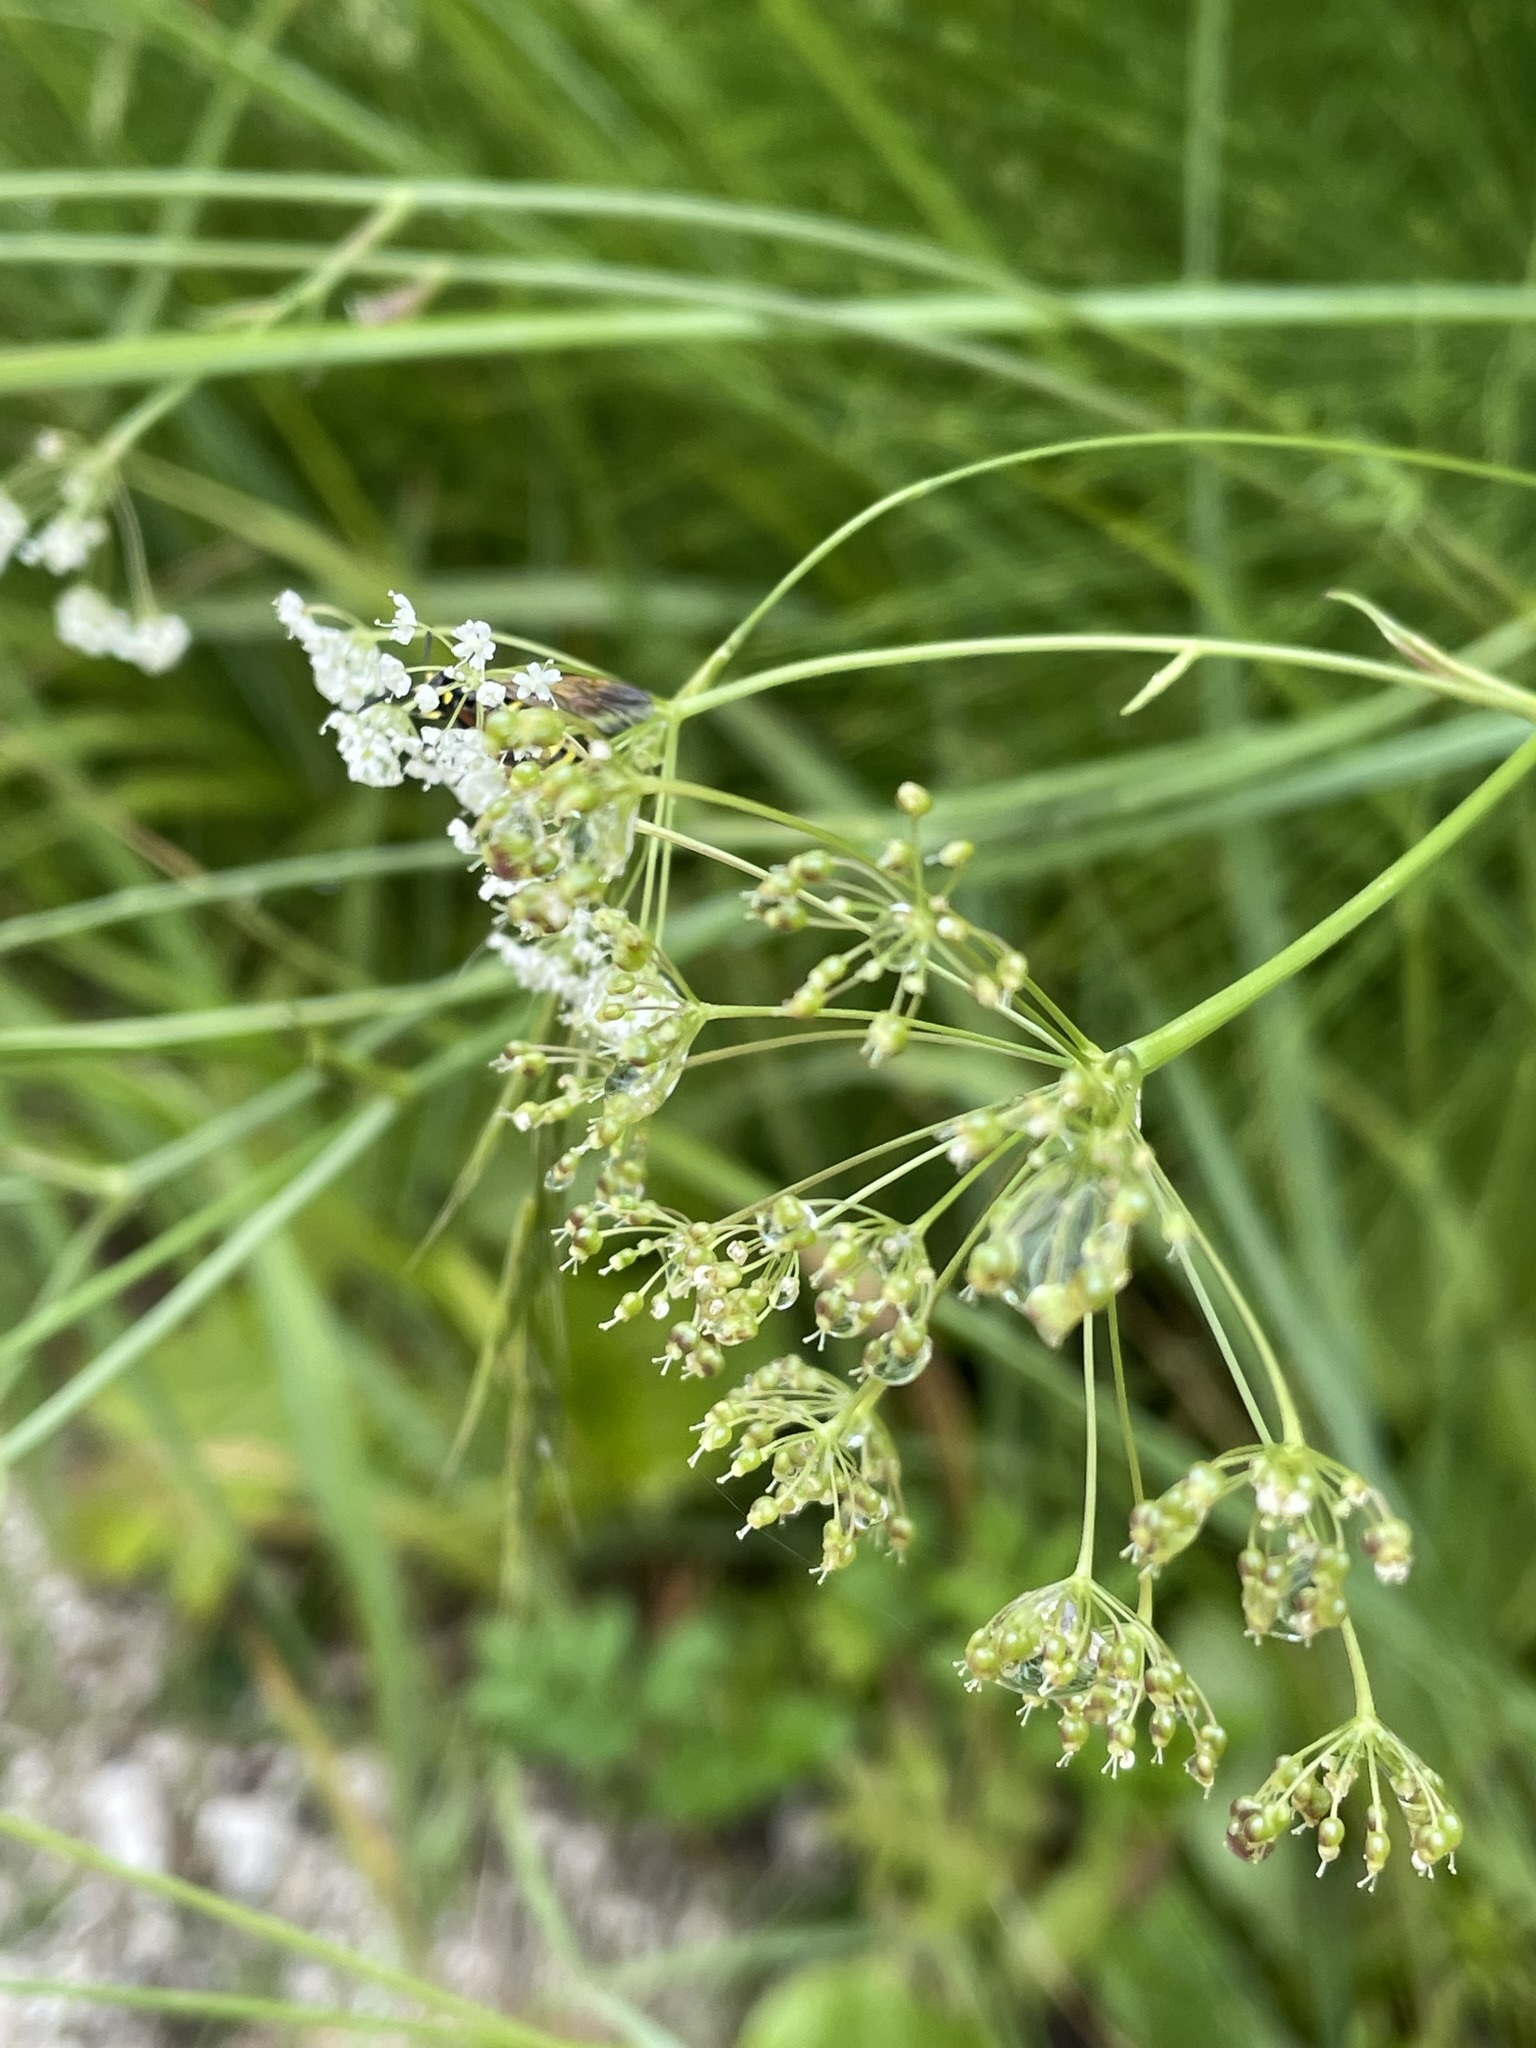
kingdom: Plantae
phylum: Tracheophyta
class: Magnoliopsida
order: Apiales
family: Apiaceae
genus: Pimpinella
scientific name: Pimpinella major
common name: Greater burnet-saxifrage
